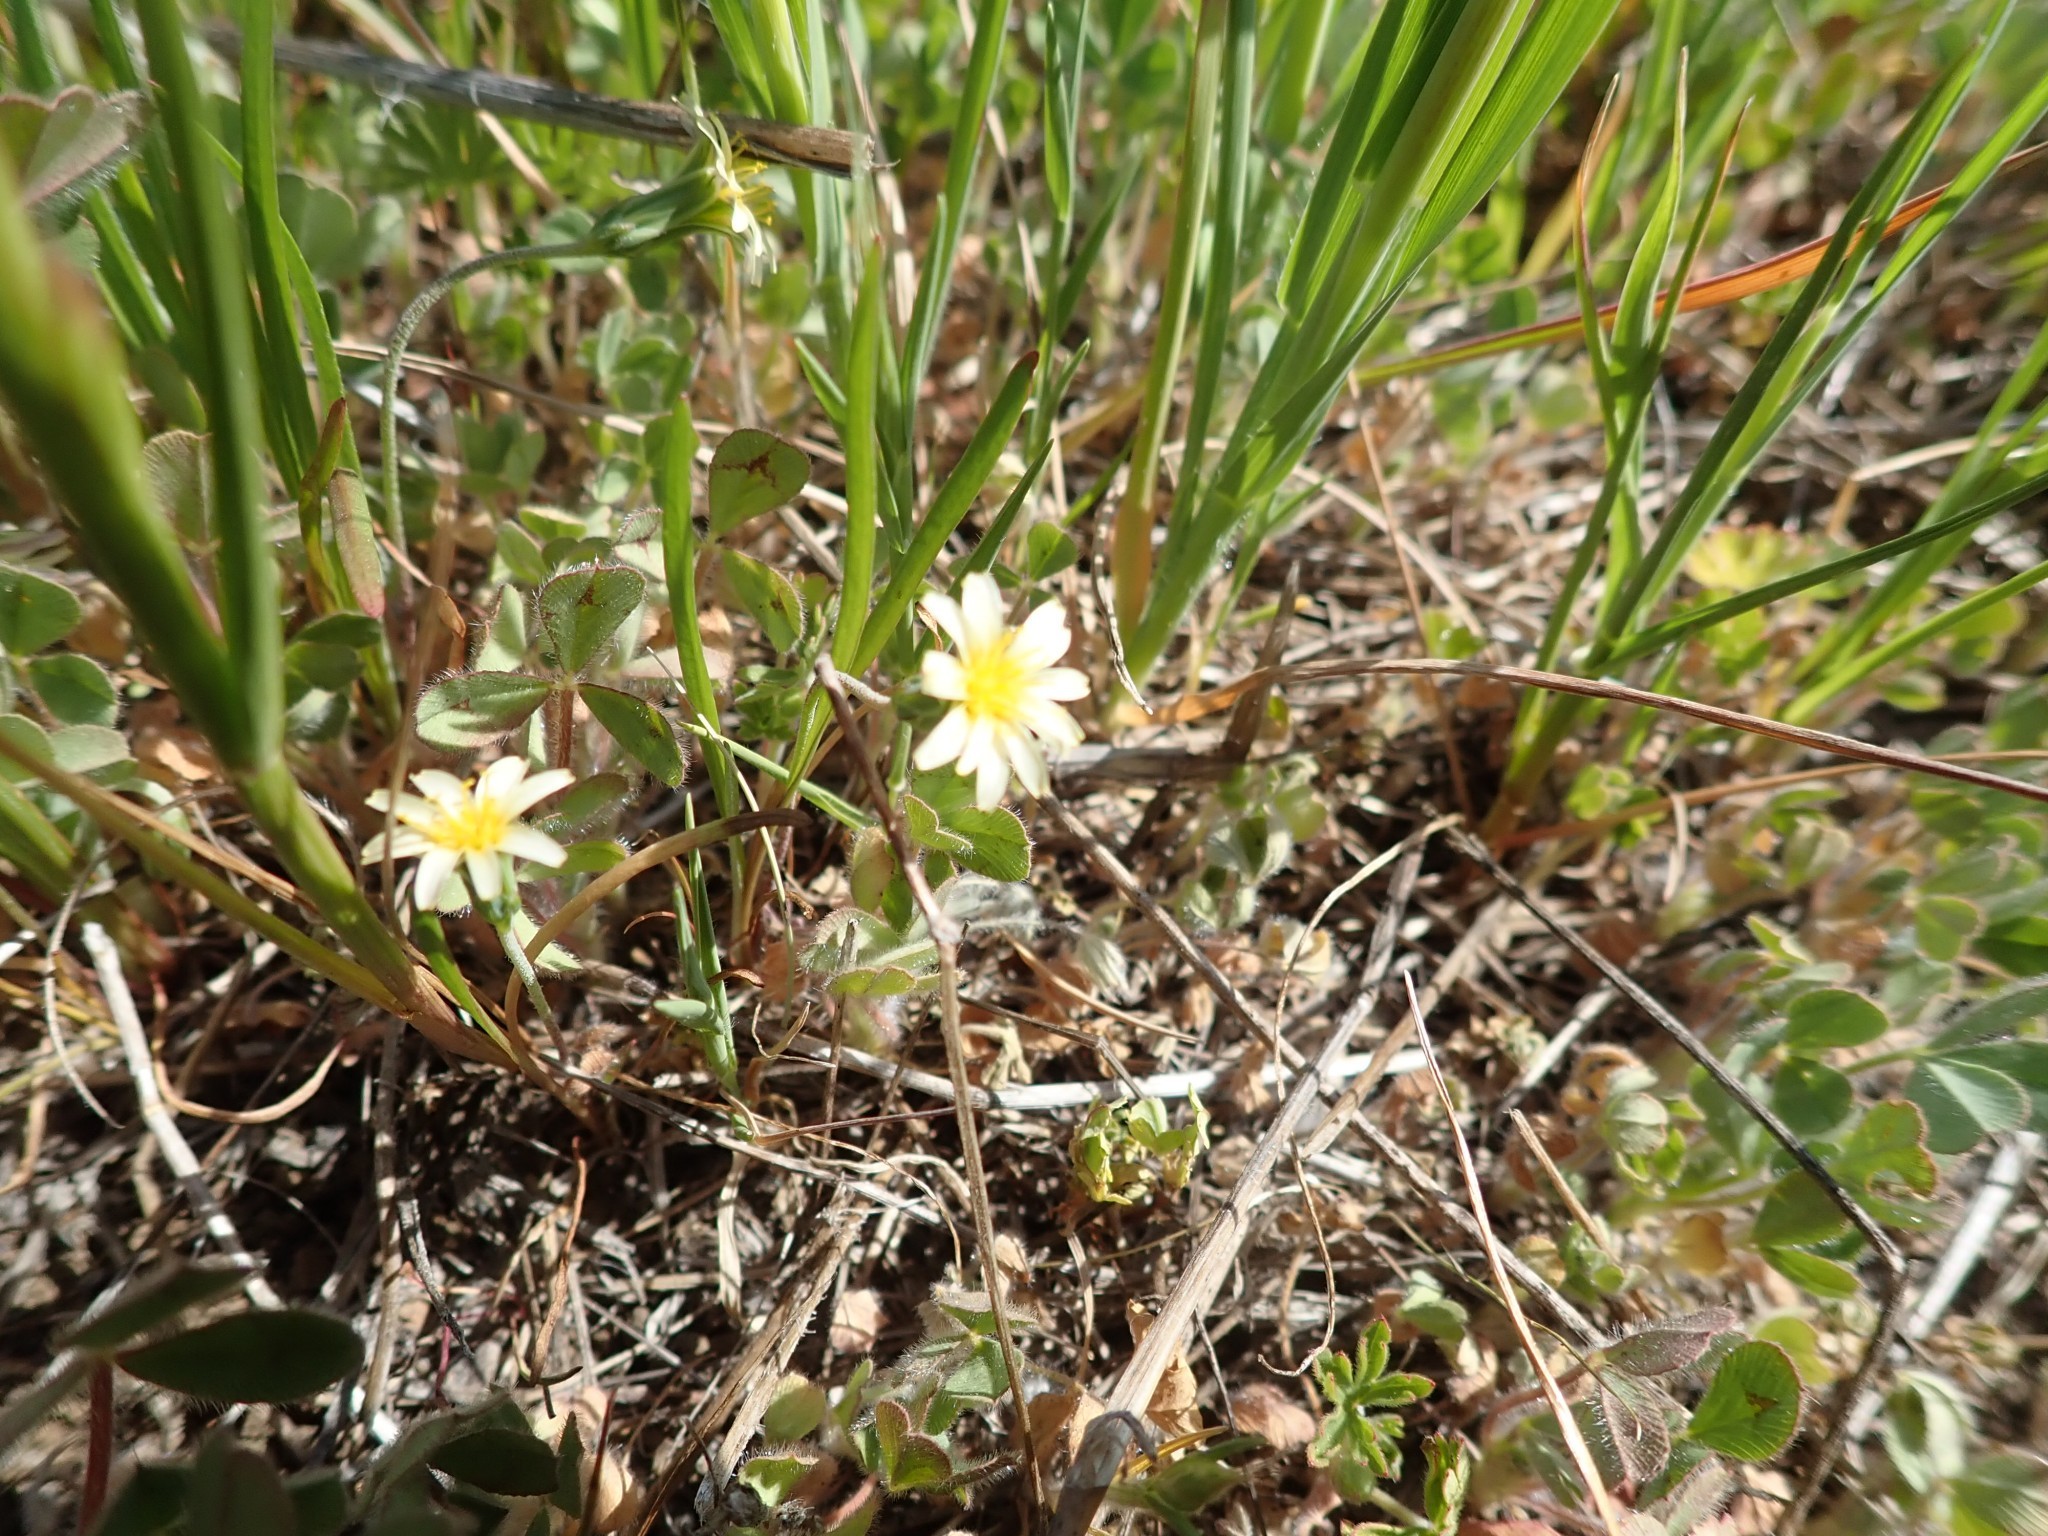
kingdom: Plantae
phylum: Tracheophyta
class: Magnoliopsida
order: Asterales
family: Asteraceae
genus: Microseris
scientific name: Microseris douglasii
